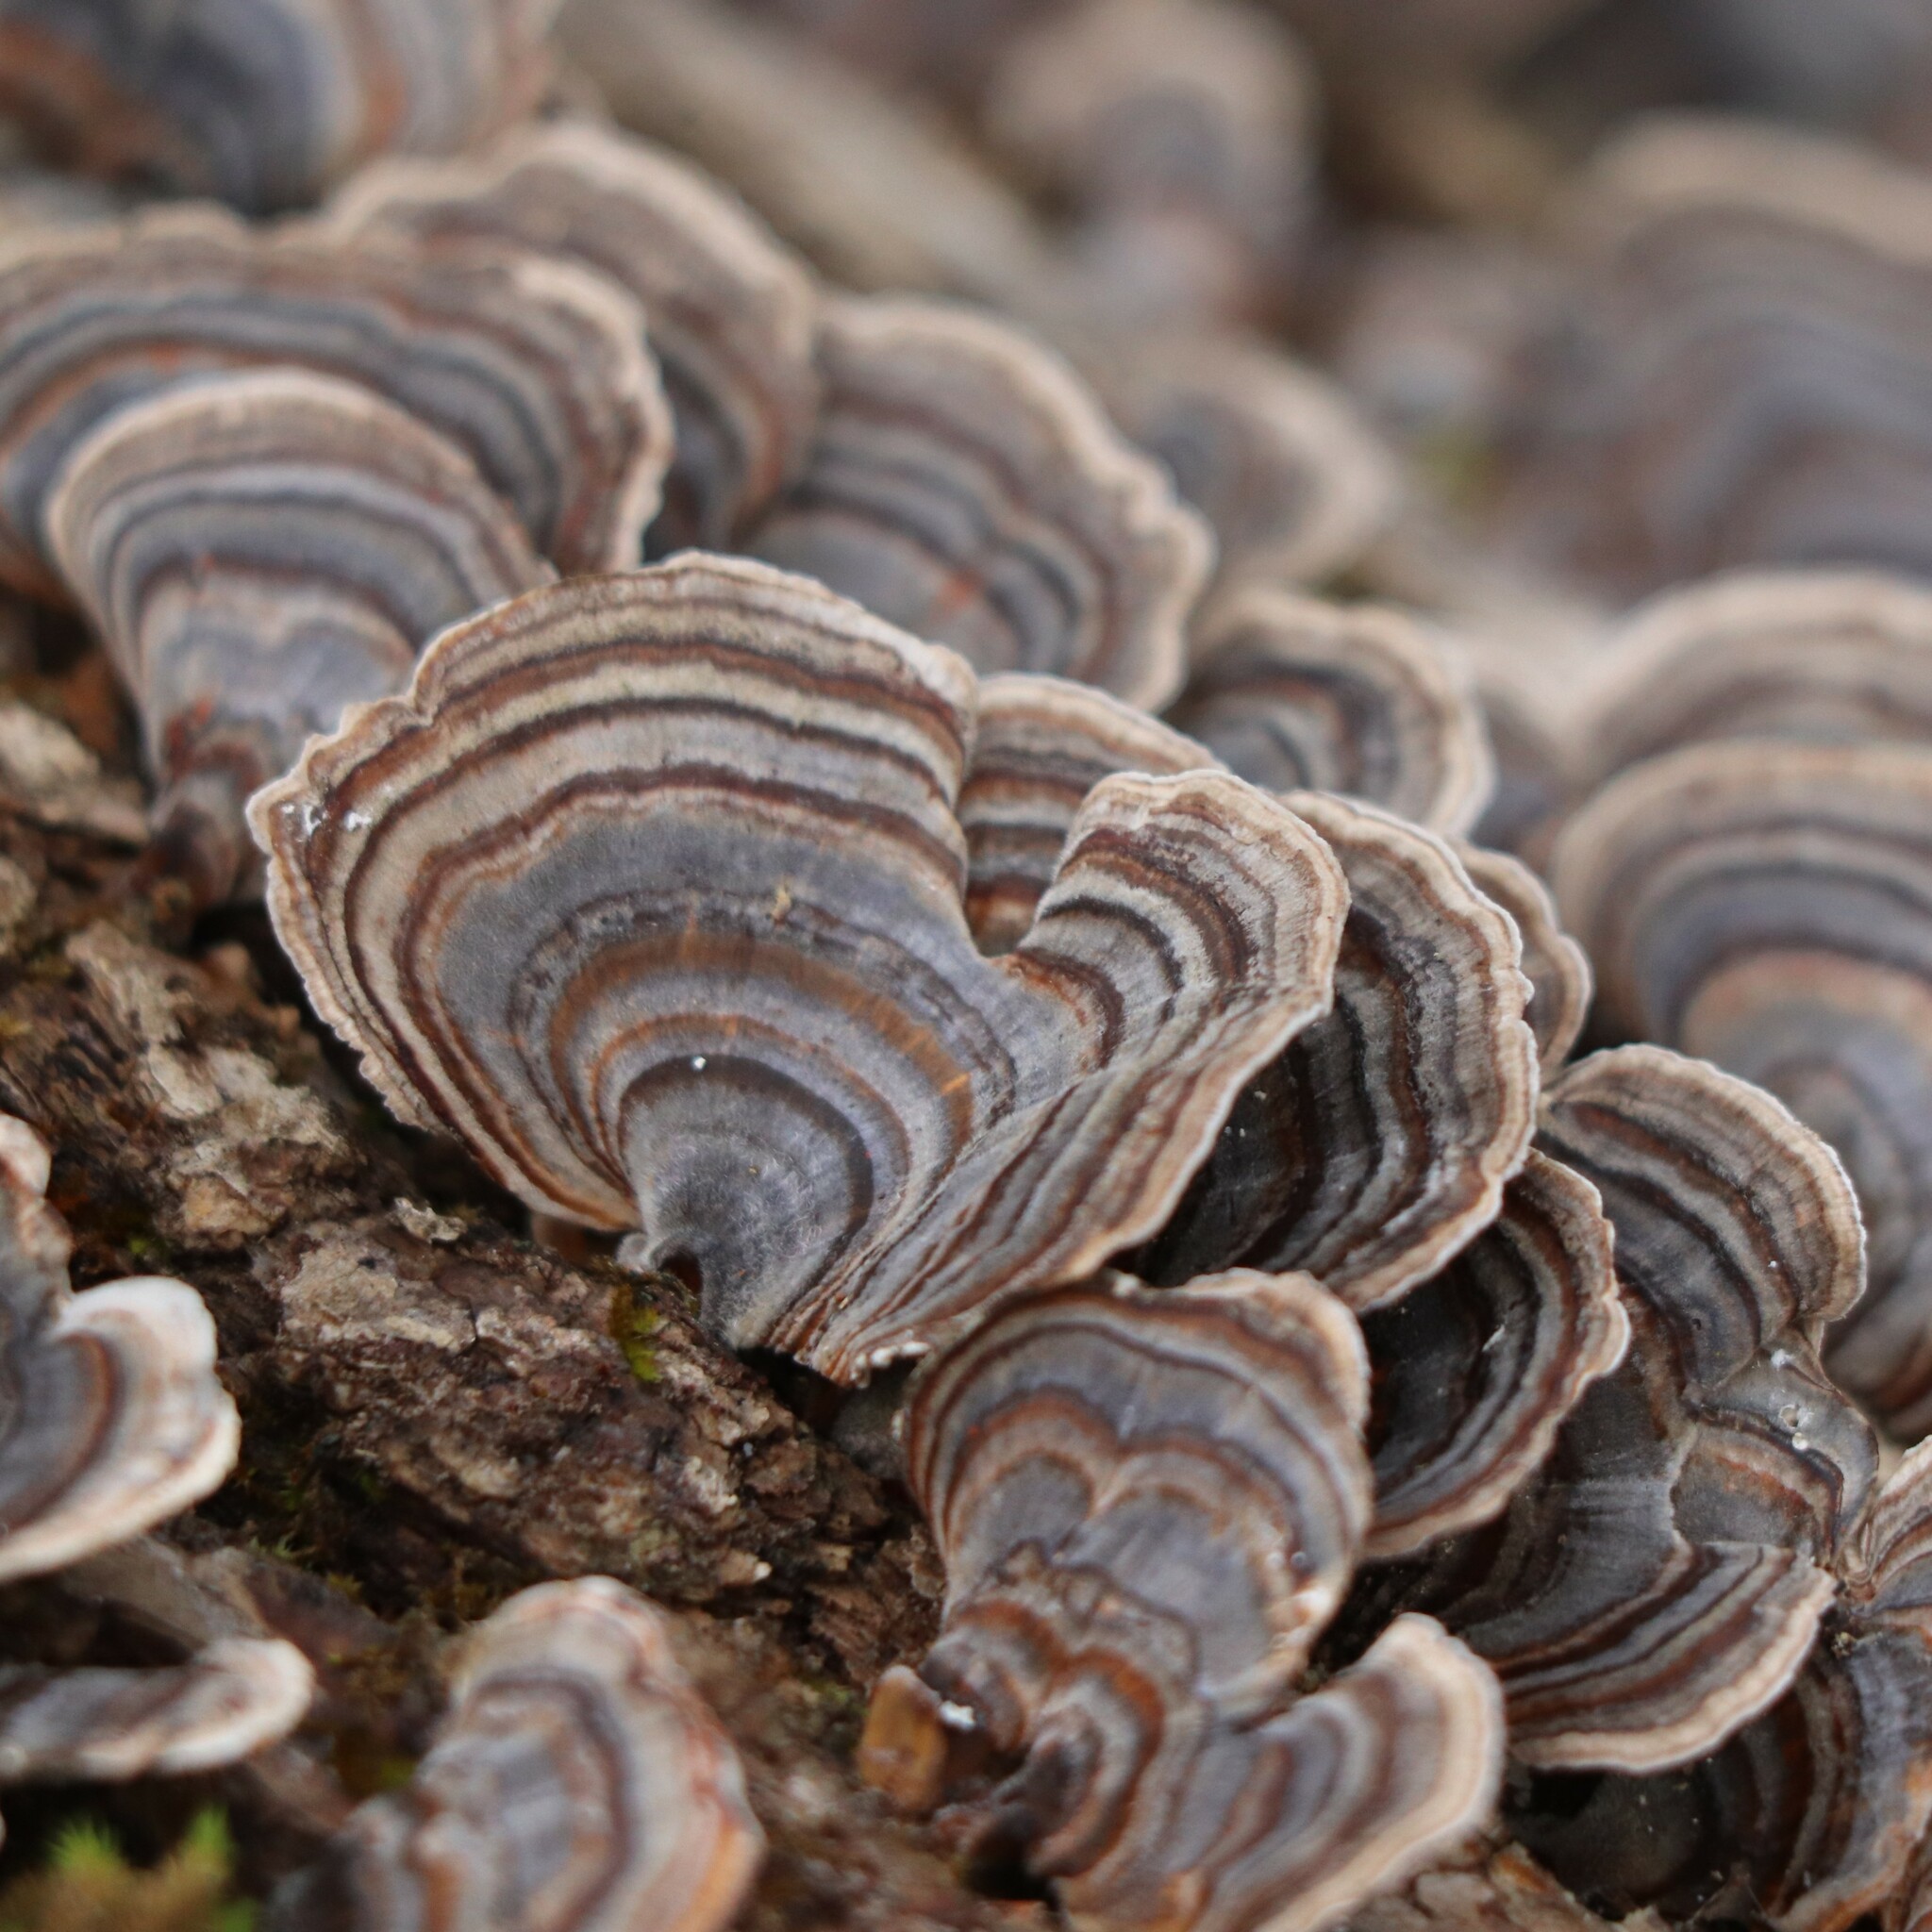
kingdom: Fungi
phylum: Basidiomycota
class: Agaricomycetes
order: Polyporales
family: Polyporaceae
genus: Trametes
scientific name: Trametes versicolor
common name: Turkeytail
